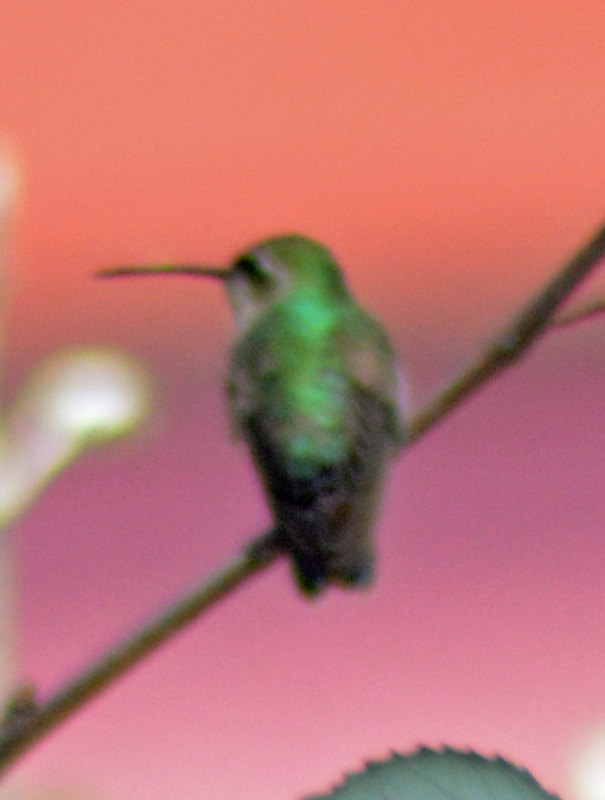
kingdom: Animalia
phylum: Chordata
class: Aves
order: Apodiformes
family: Trochilidae
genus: Cynanthus
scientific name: Cynanthus latirostris
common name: Broad-billed hummingbird
